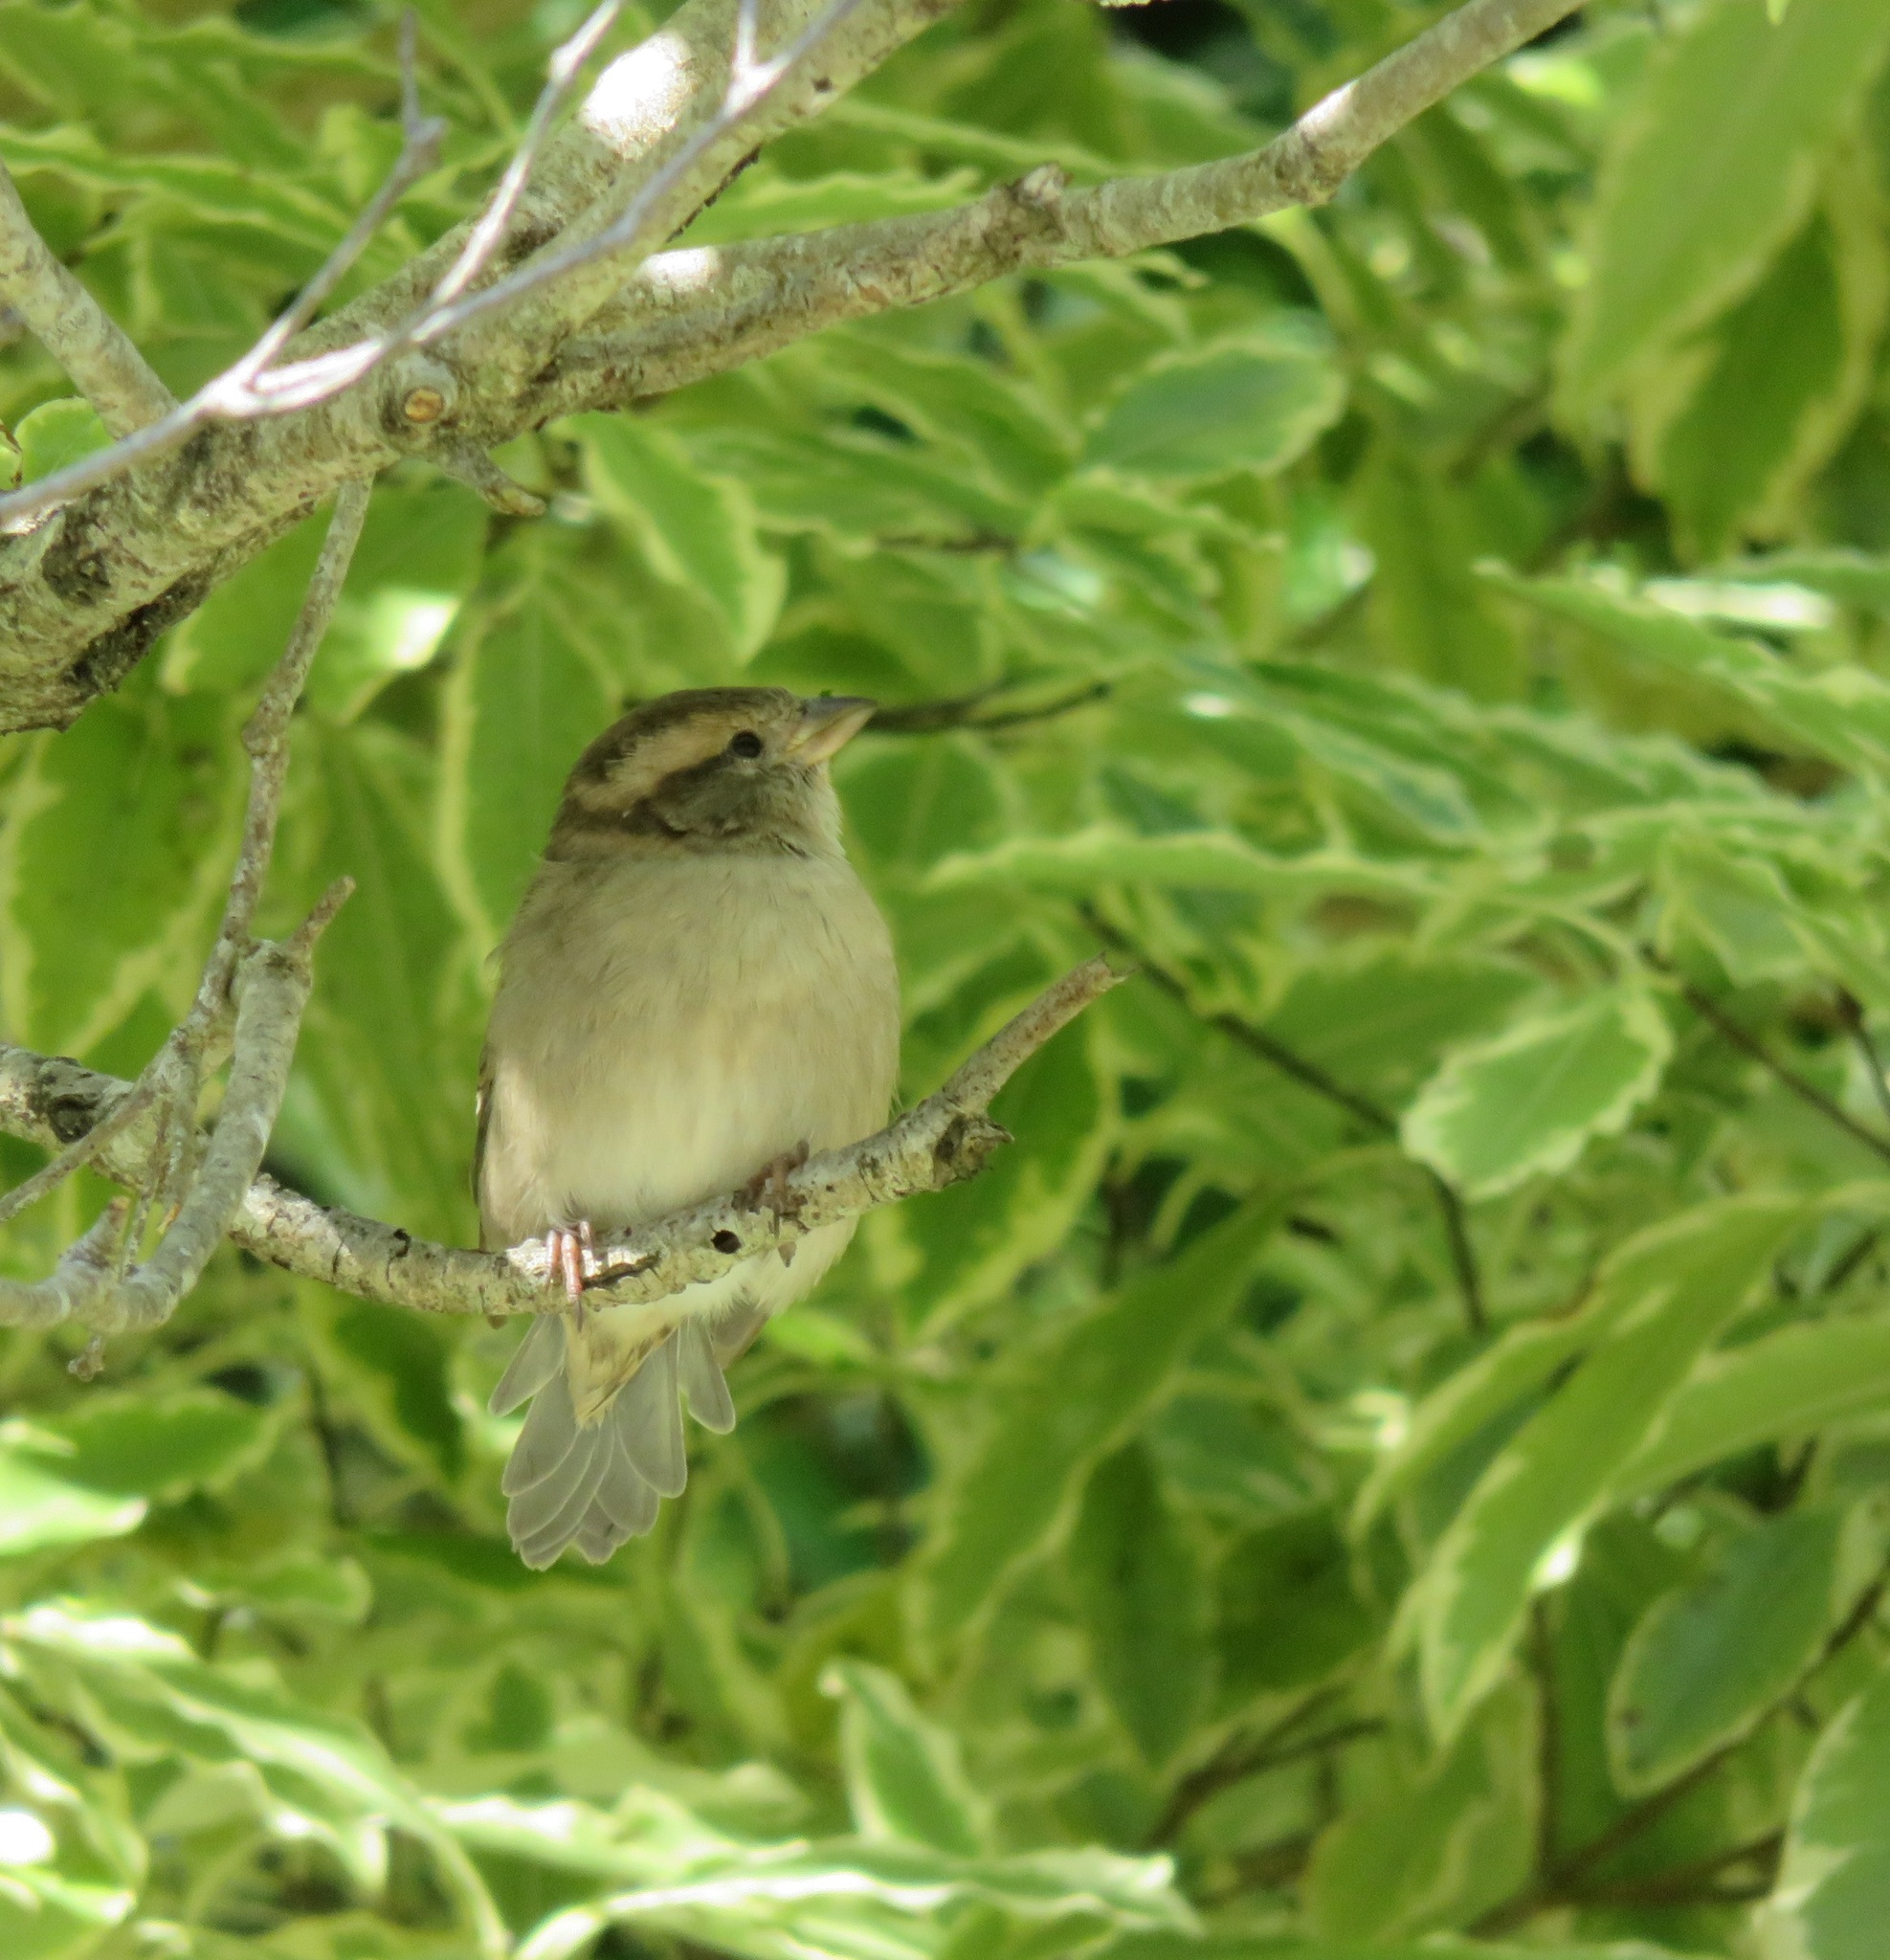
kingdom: Animalia
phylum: Chordata
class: Aves
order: Passeriformes
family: Passeridae
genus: Passer
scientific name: Passer domesticus
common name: House sparrow
